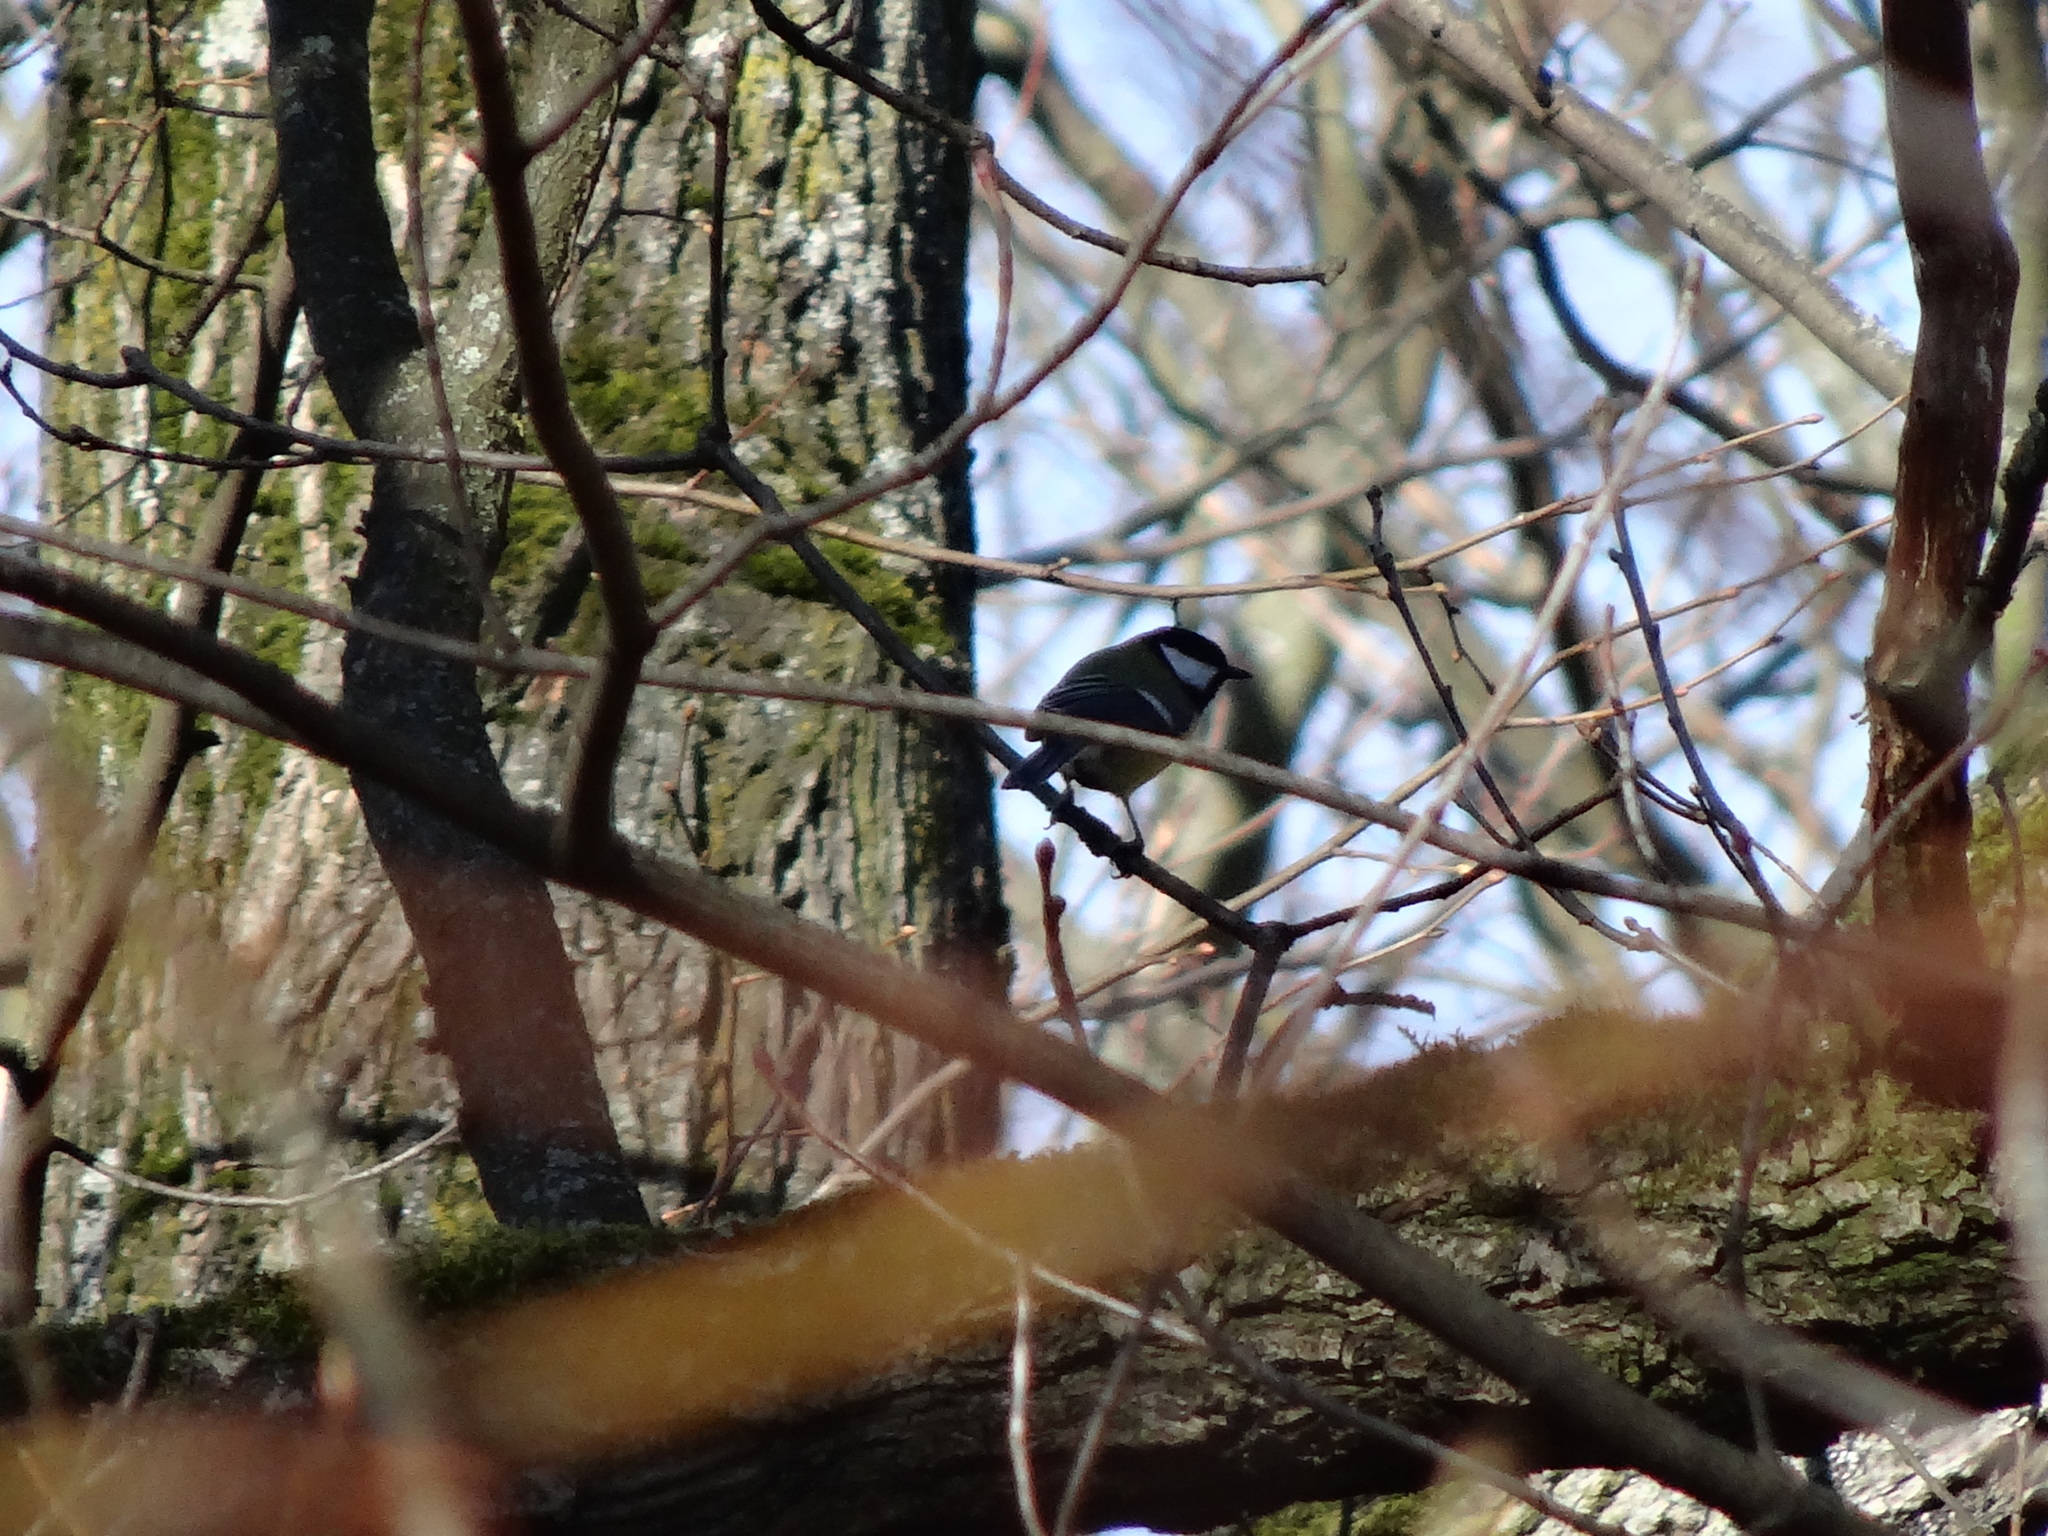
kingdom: Animalia
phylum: Chordata
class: Aves
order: Passeriformes
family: Paridae
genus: Parus
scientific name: Parus major
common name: Great tit
